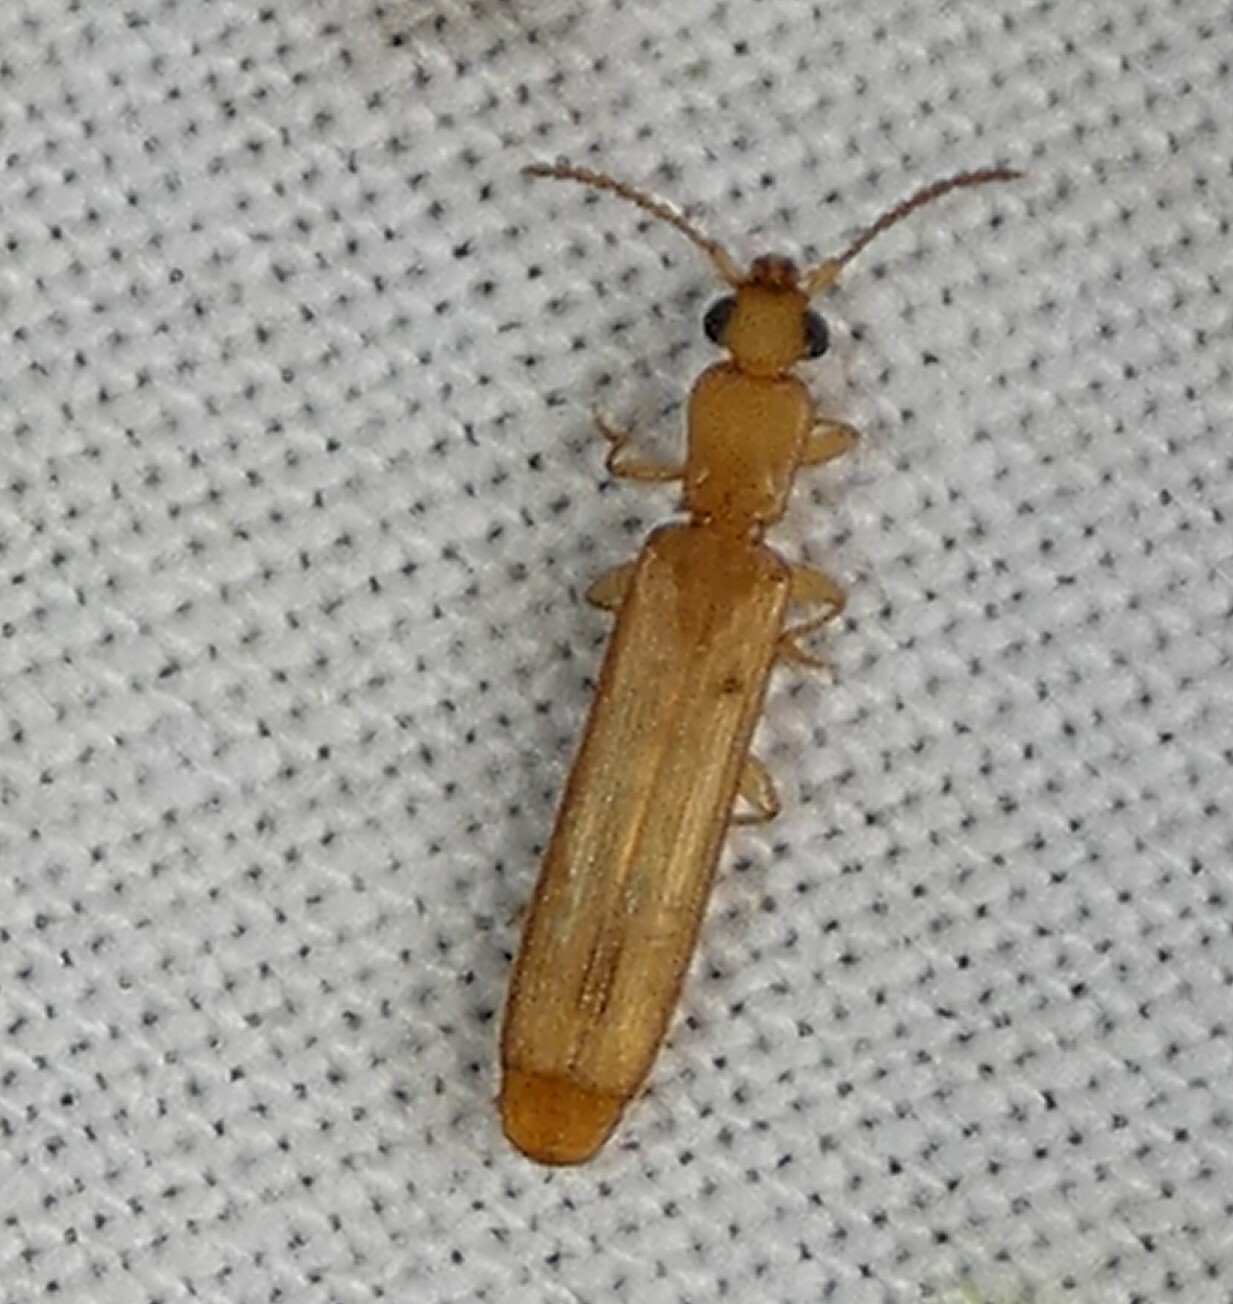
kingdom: Animalia
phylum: Arthropoda
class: Insecta
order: Coleoptera
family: Mycteridae
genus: Hemipeplus
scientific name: Hemipeplus marginipennis
